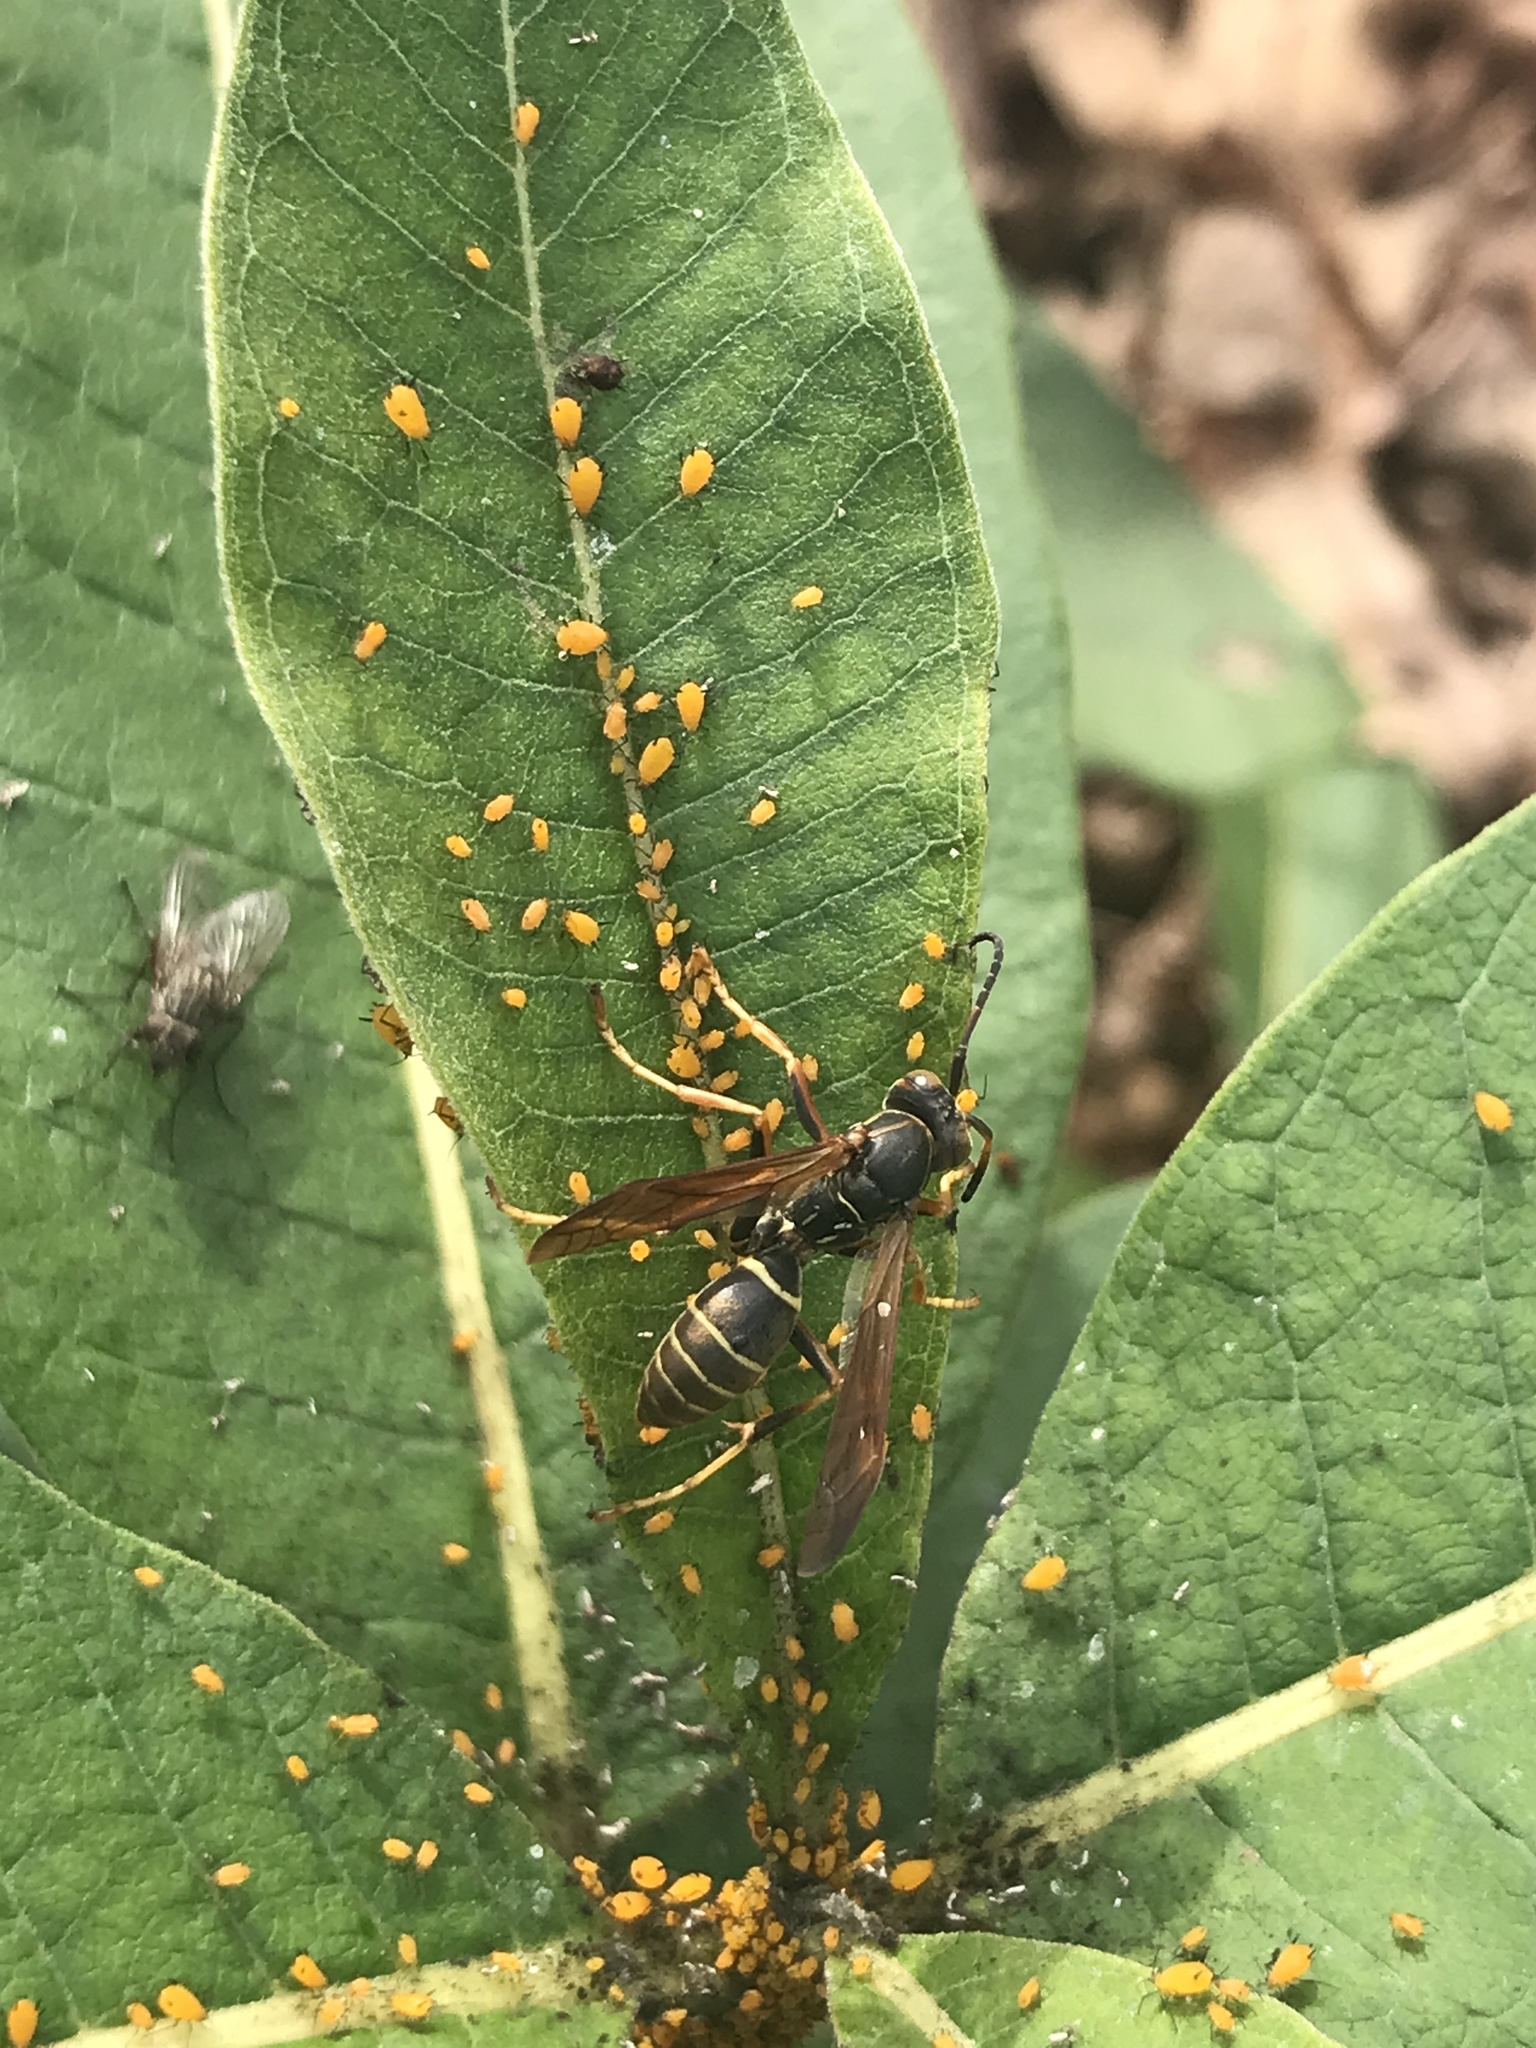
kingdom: Animalia
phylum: Arthropoda
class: Insecta
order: Hymenoptera
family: Eumenidae
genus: Polistes
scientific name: Polistes fuscatus
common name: Dark paper wasp
